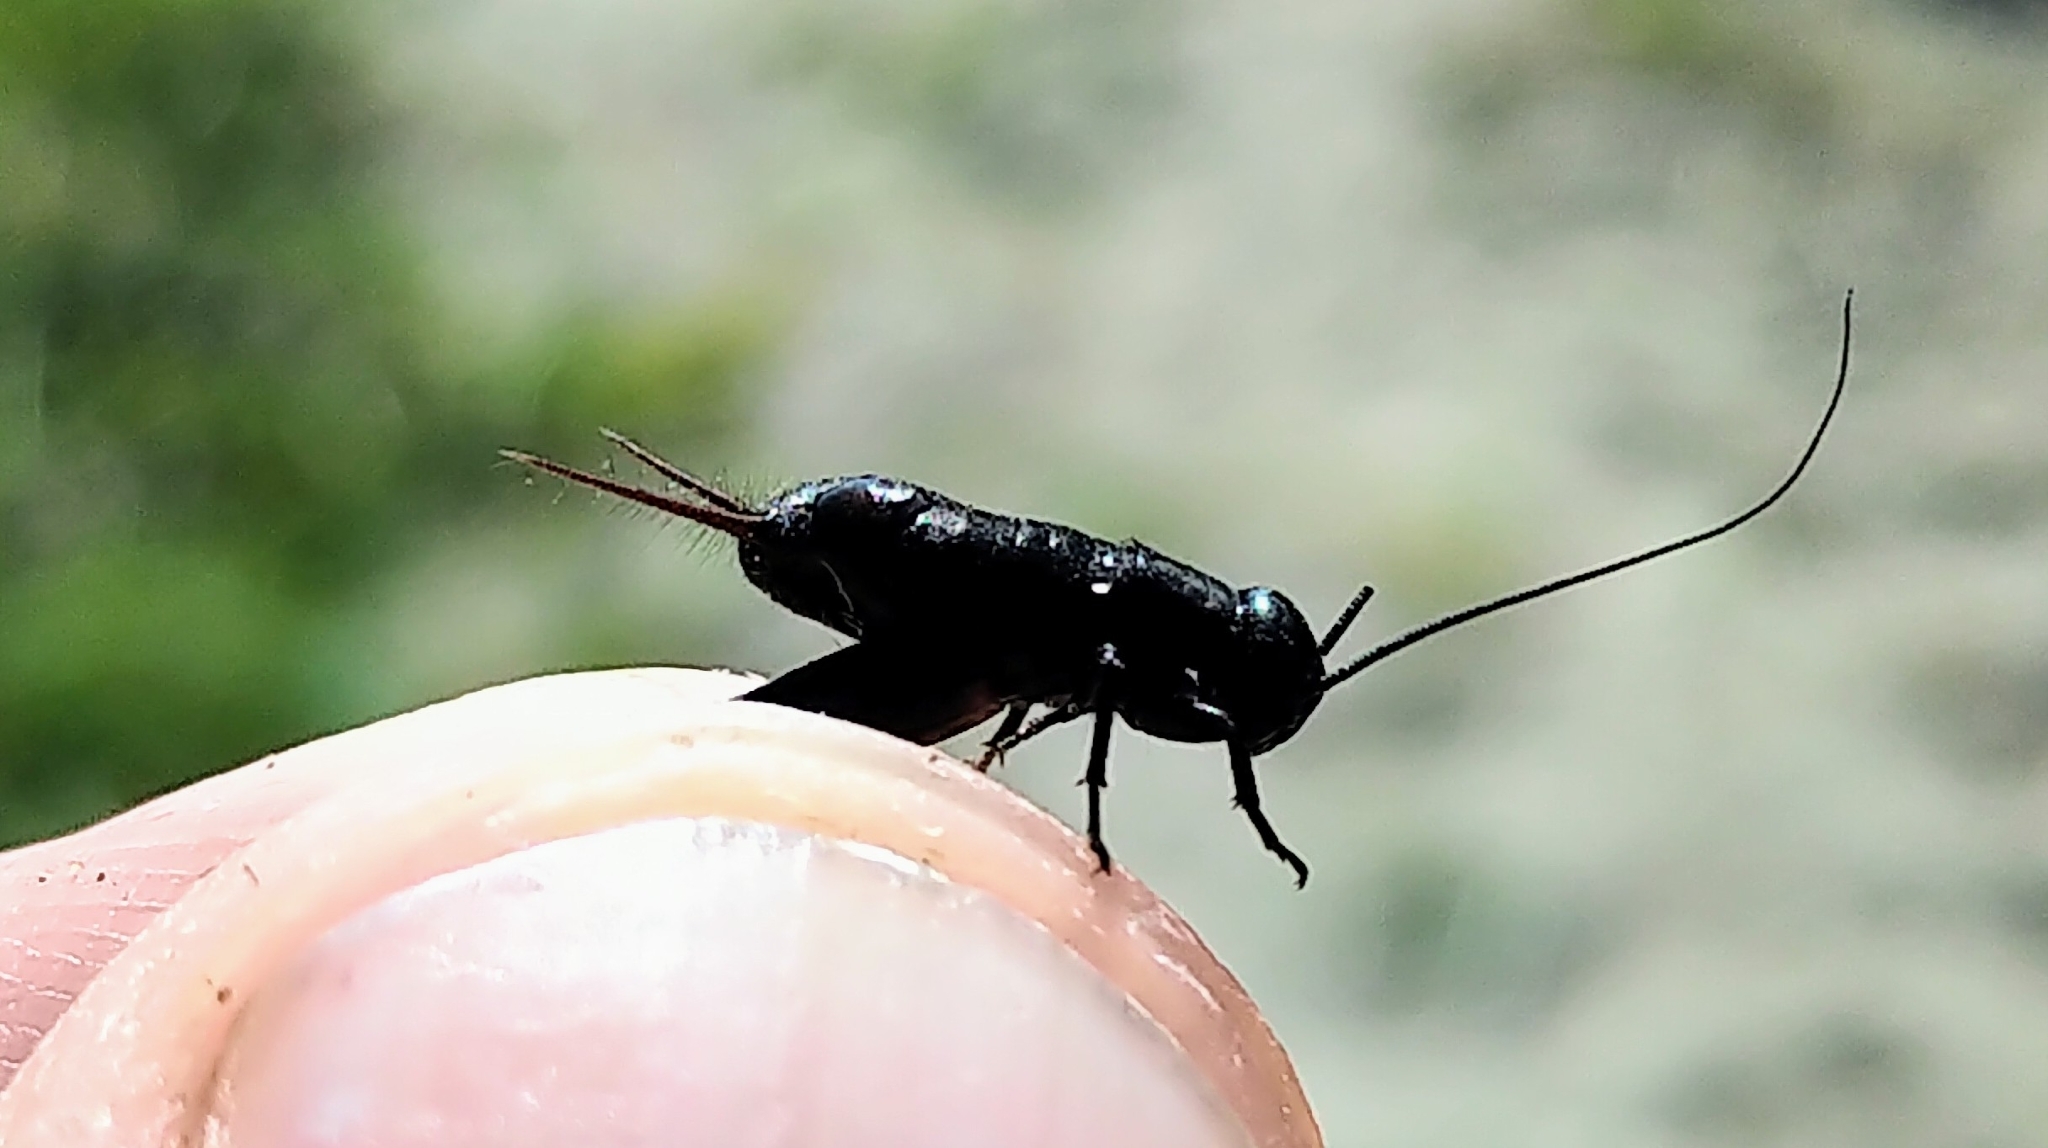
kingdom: Animalia
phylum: Arthropoda
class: Insecta
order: Orthoptera
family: Gryllidae
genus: Gryllus
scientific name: Gryllus pennsylvanicus
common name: Fall field cricket
